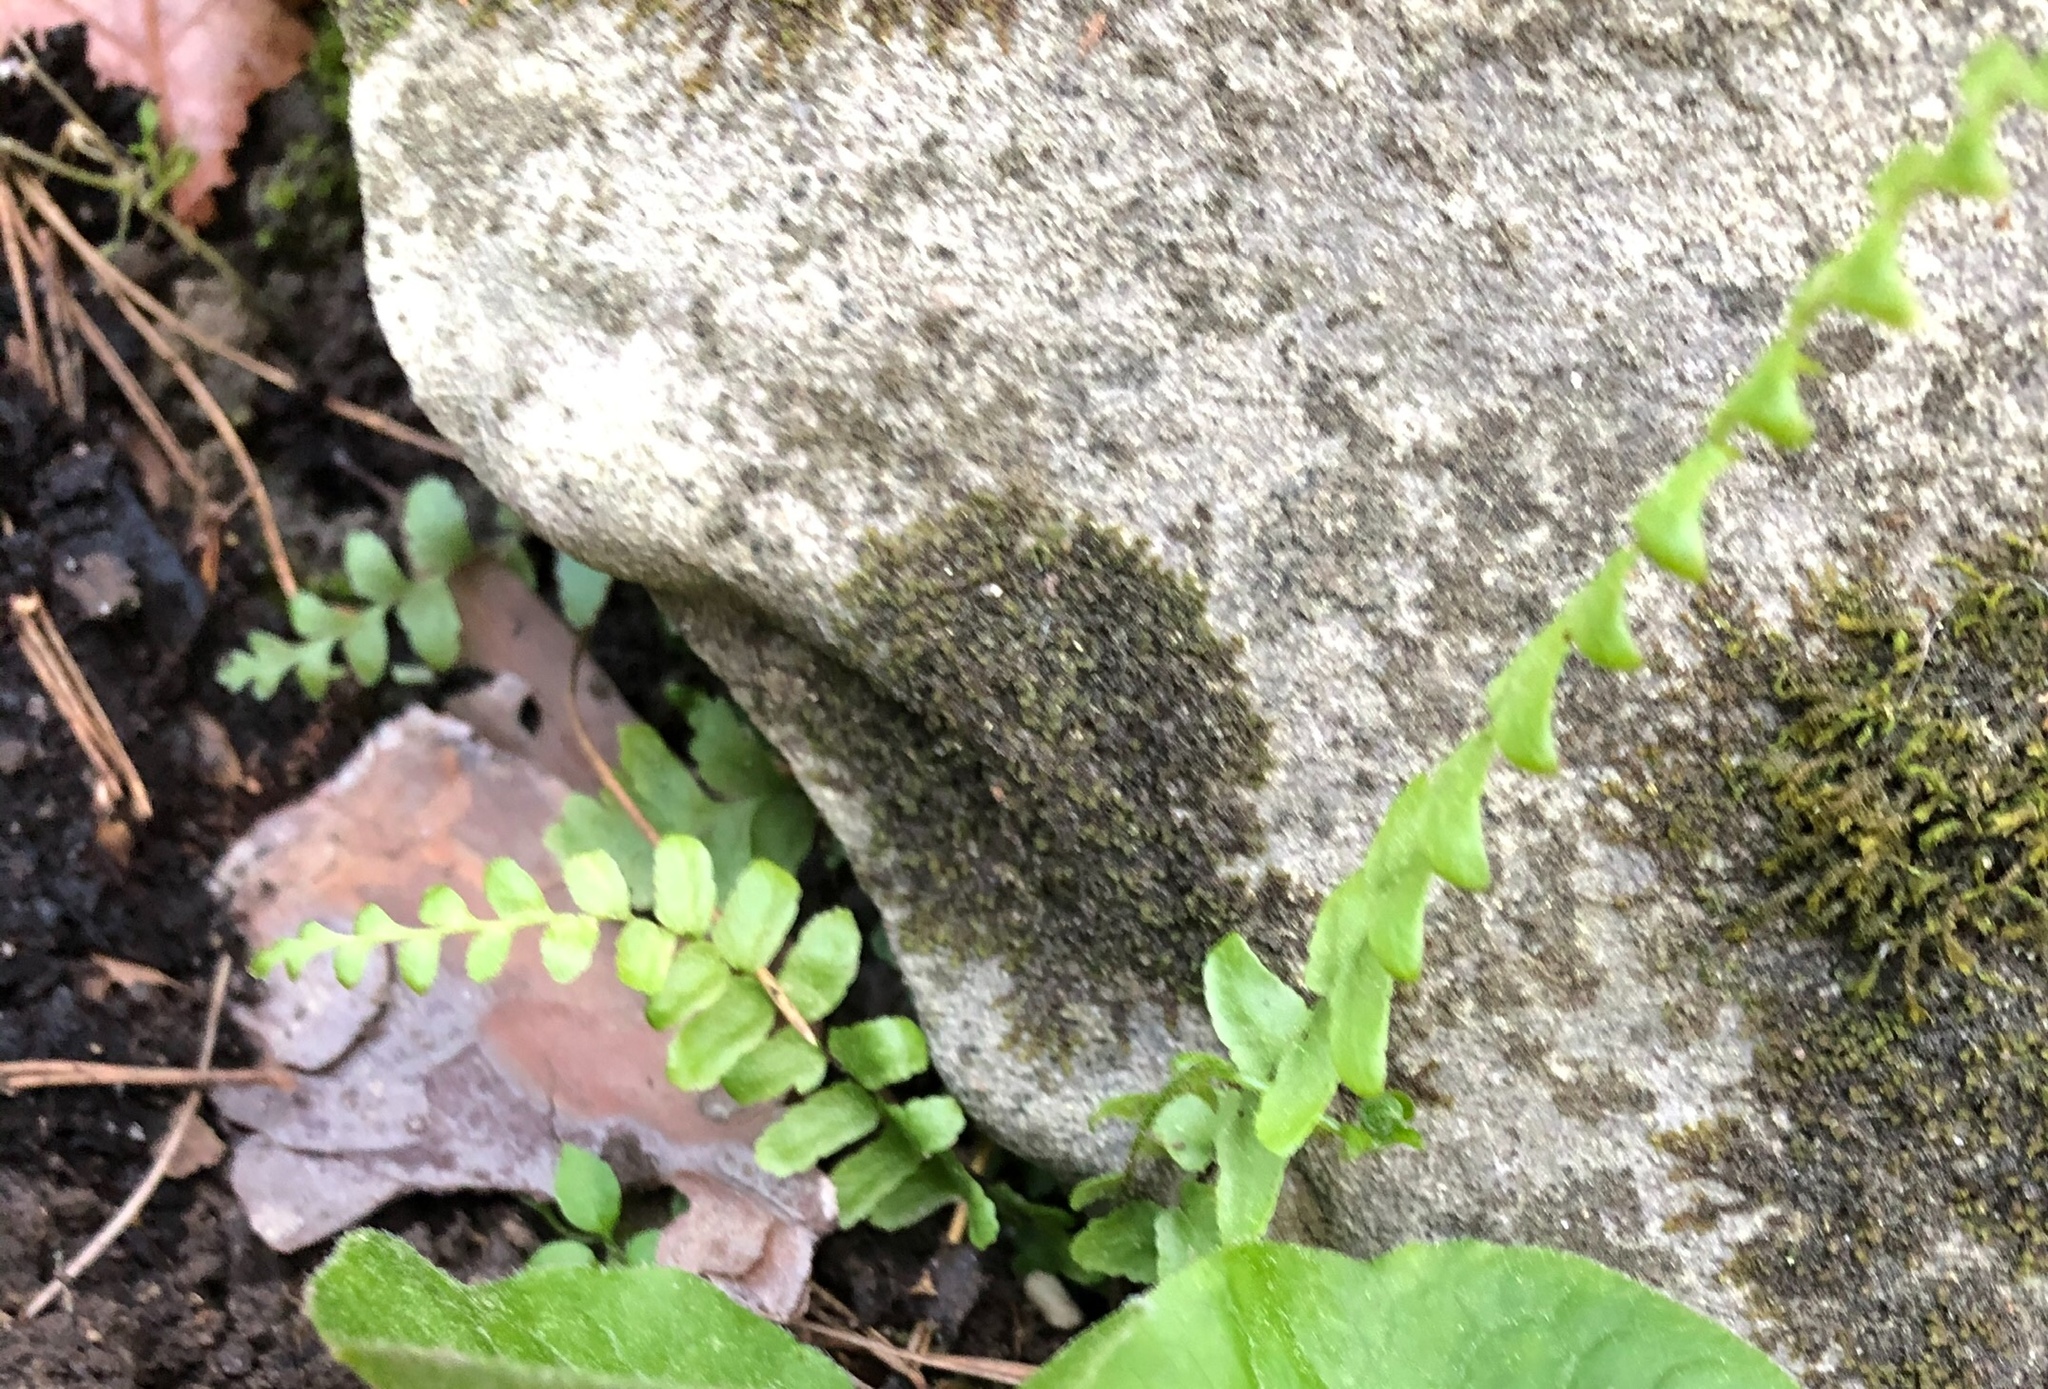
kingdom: Plantae
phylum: Tracheophyta
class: Polypodiopsida
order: Polypodiales
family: Aspleniaceae
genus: Asplenium
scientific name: Asplenium platyneuron
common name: Ebony spleenwort
